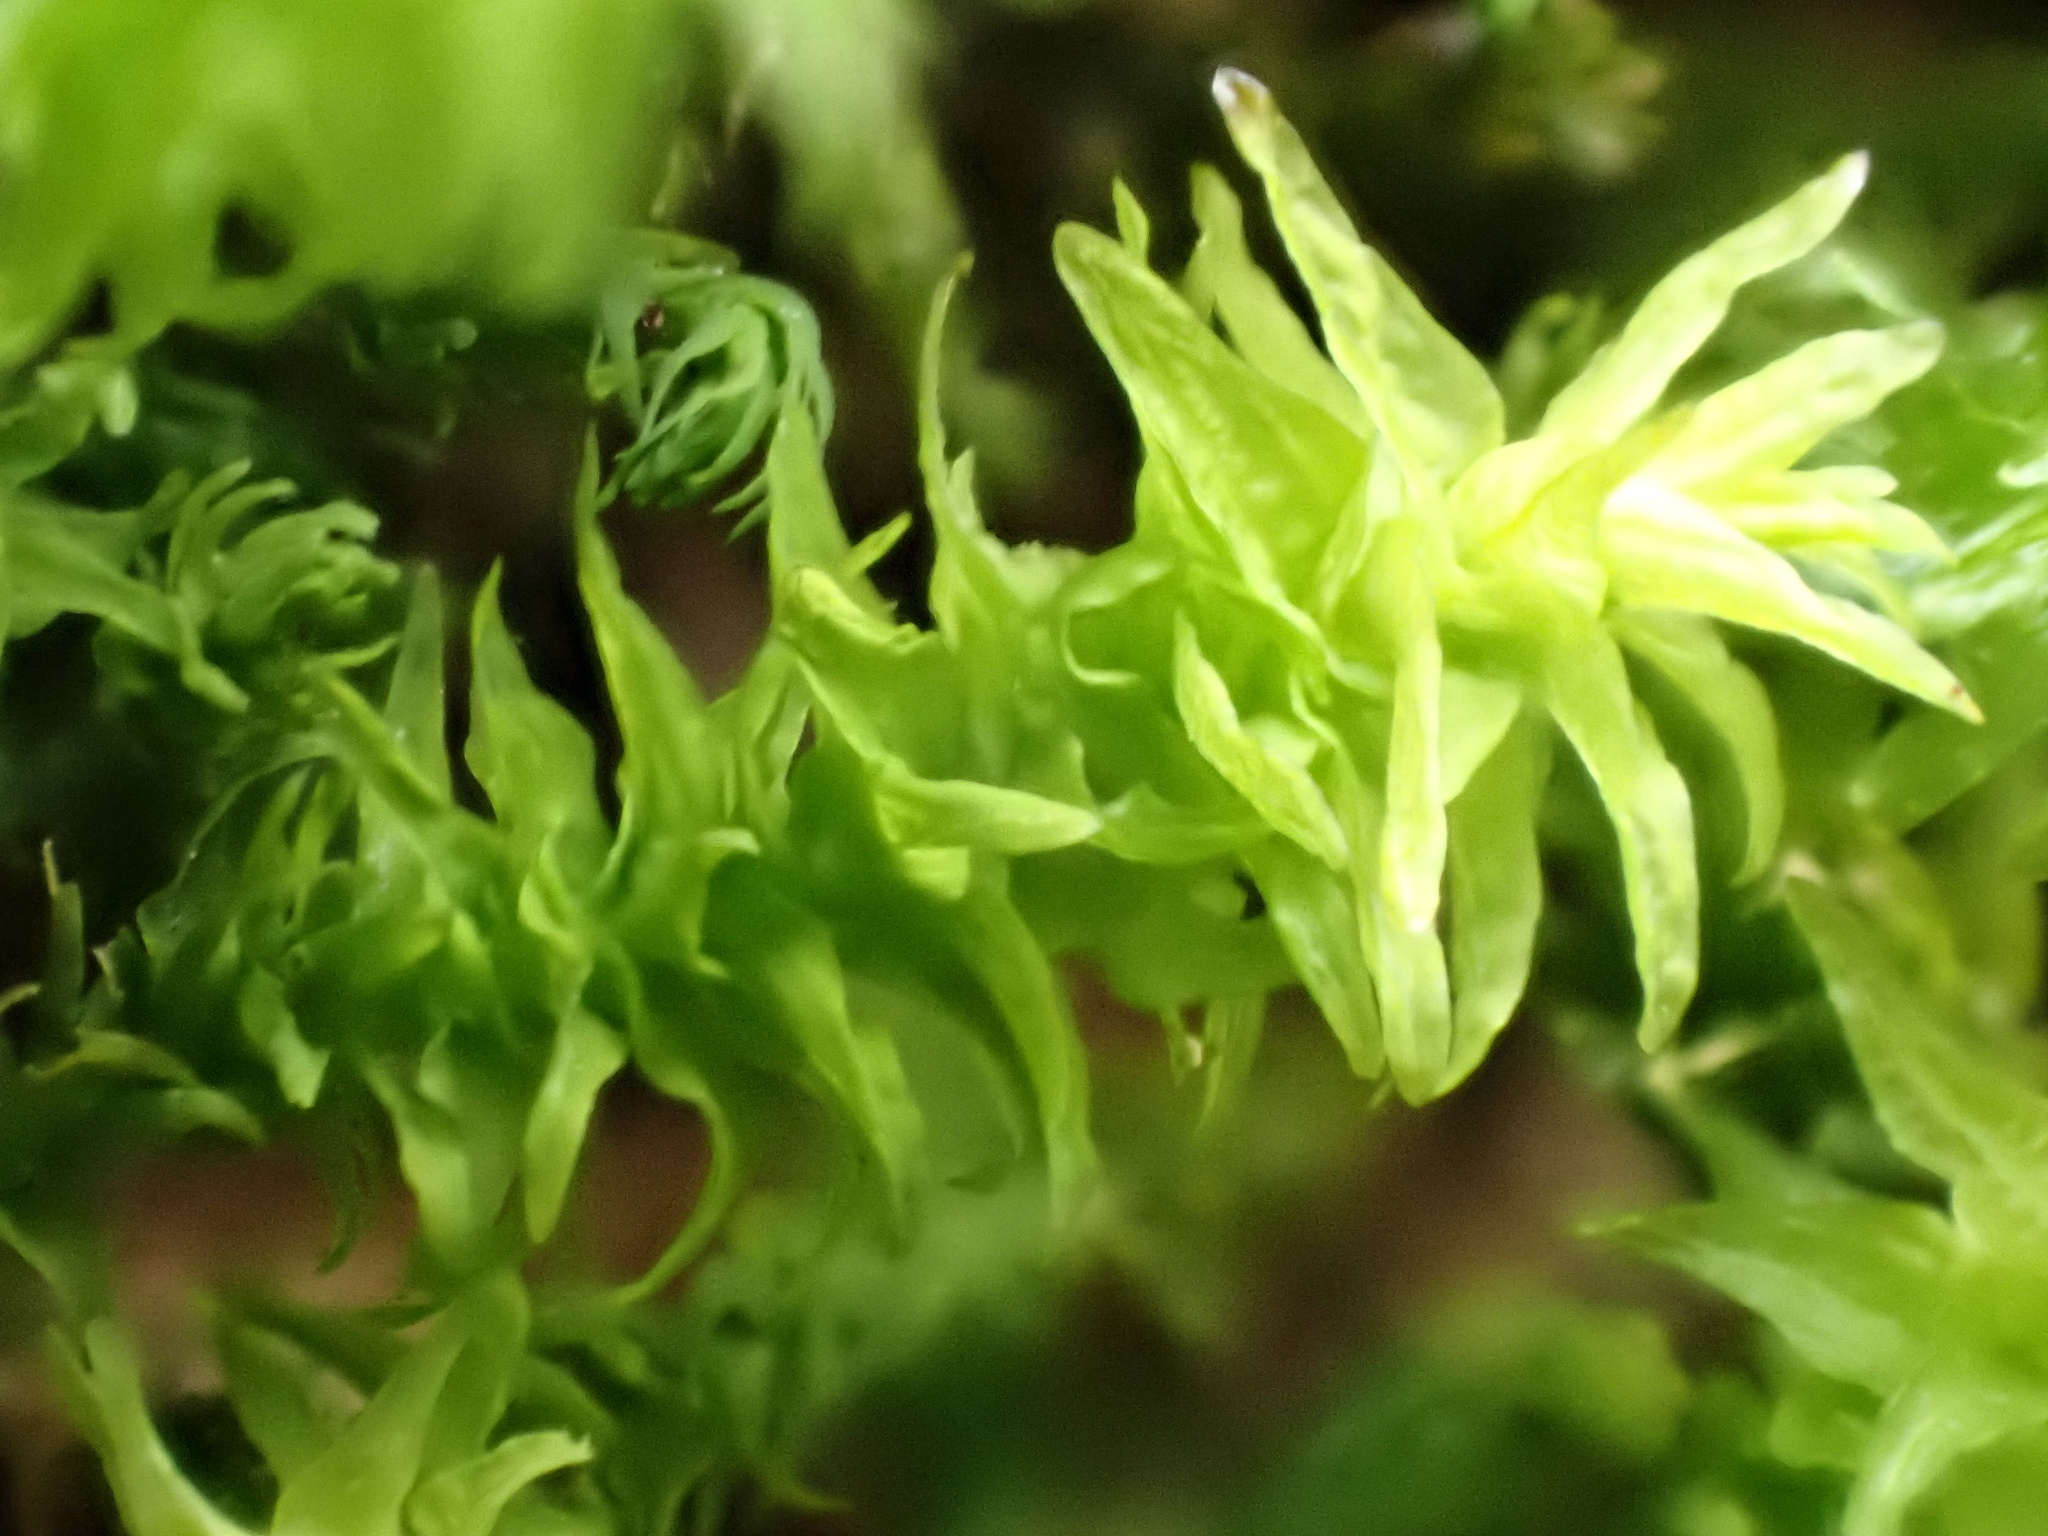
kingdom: Plantae
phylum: Bryophyta
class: Bryopsida
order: Hypnales
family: Anomodontaceae
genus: Anomodon
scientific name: Anomodon viticulosus
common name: Tall anomodon
